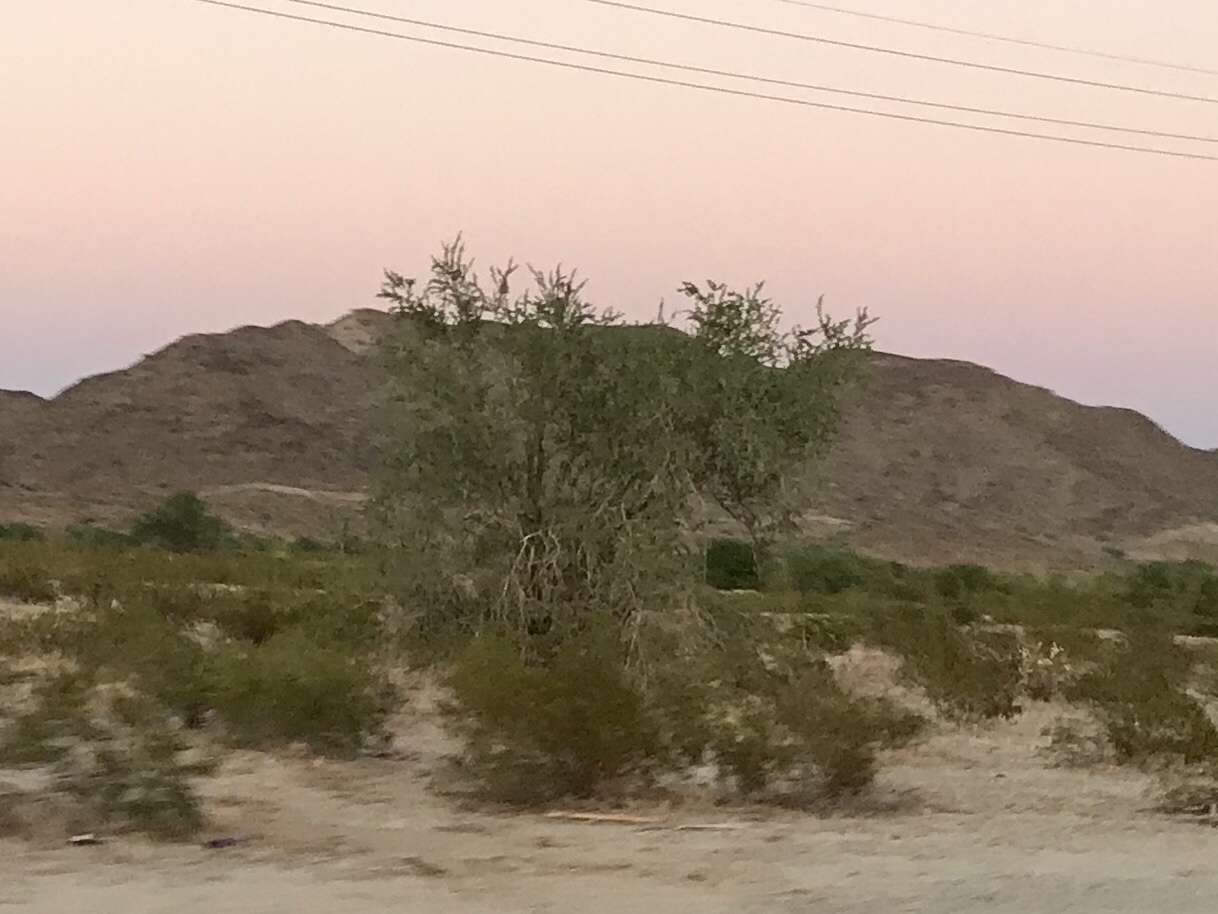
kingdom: Plantae
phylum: Tracheophyta
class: Magnoliopsida
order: Fabales
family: Fabaceae
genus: Olneya
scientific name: Olneya tesota
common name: Desert ironwood
